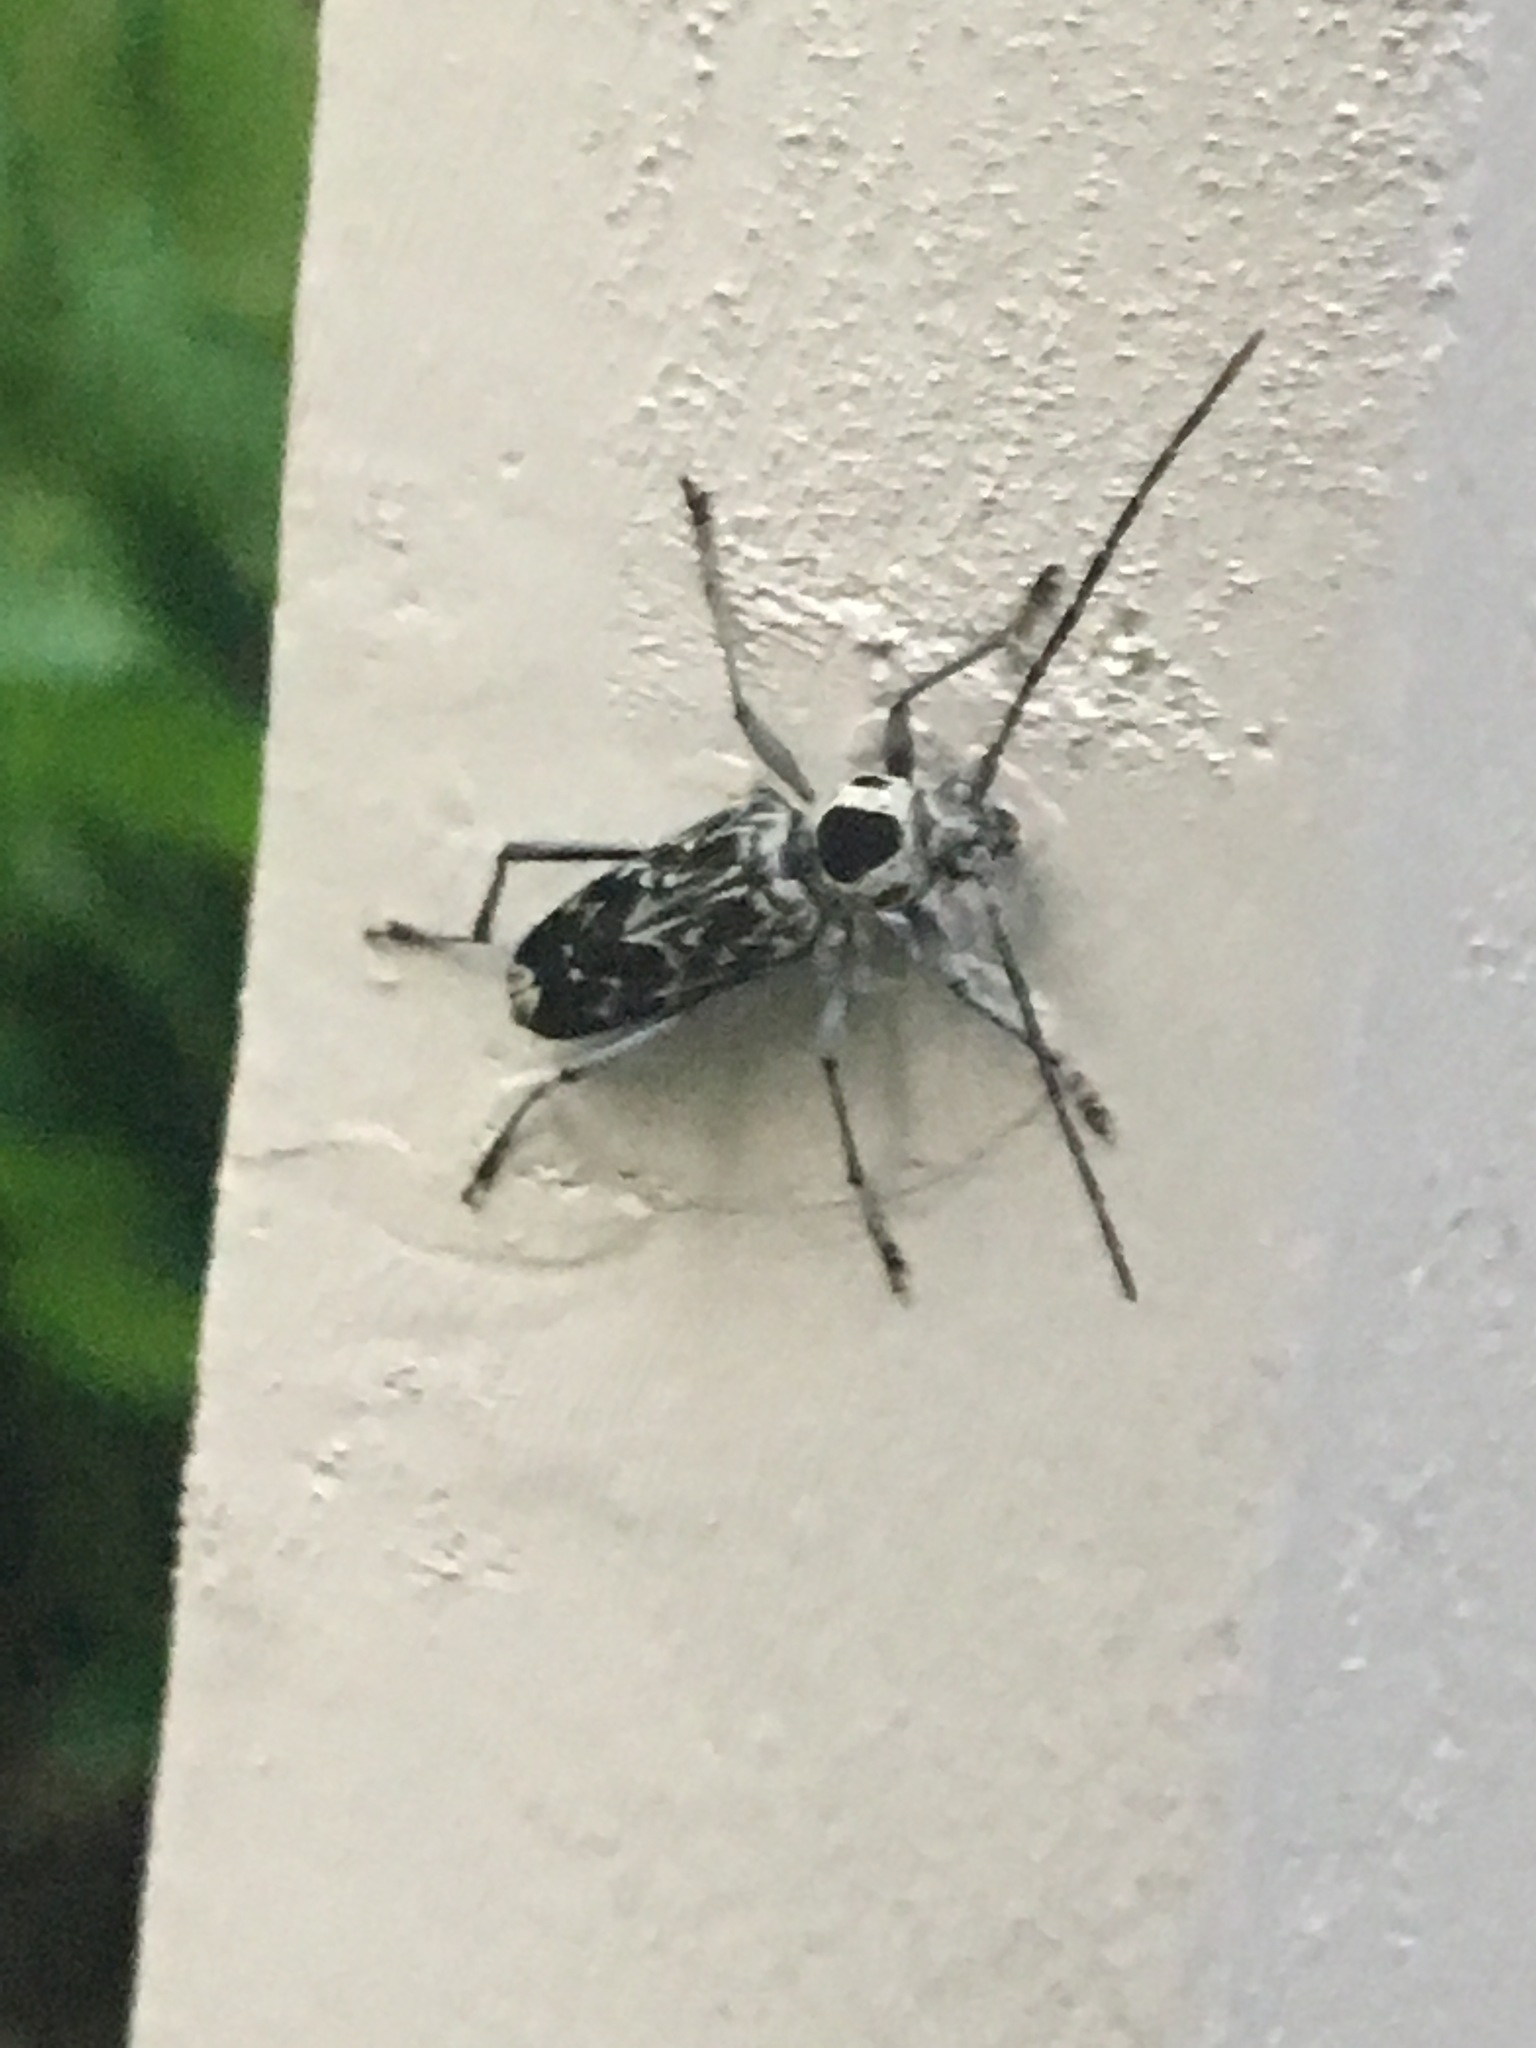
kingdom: Animalia
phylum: Arthropoda
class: Insecta
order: Coleoptera
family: Cerambycidae
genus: Sarosesthes
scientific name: Sarosesthes fulminans
